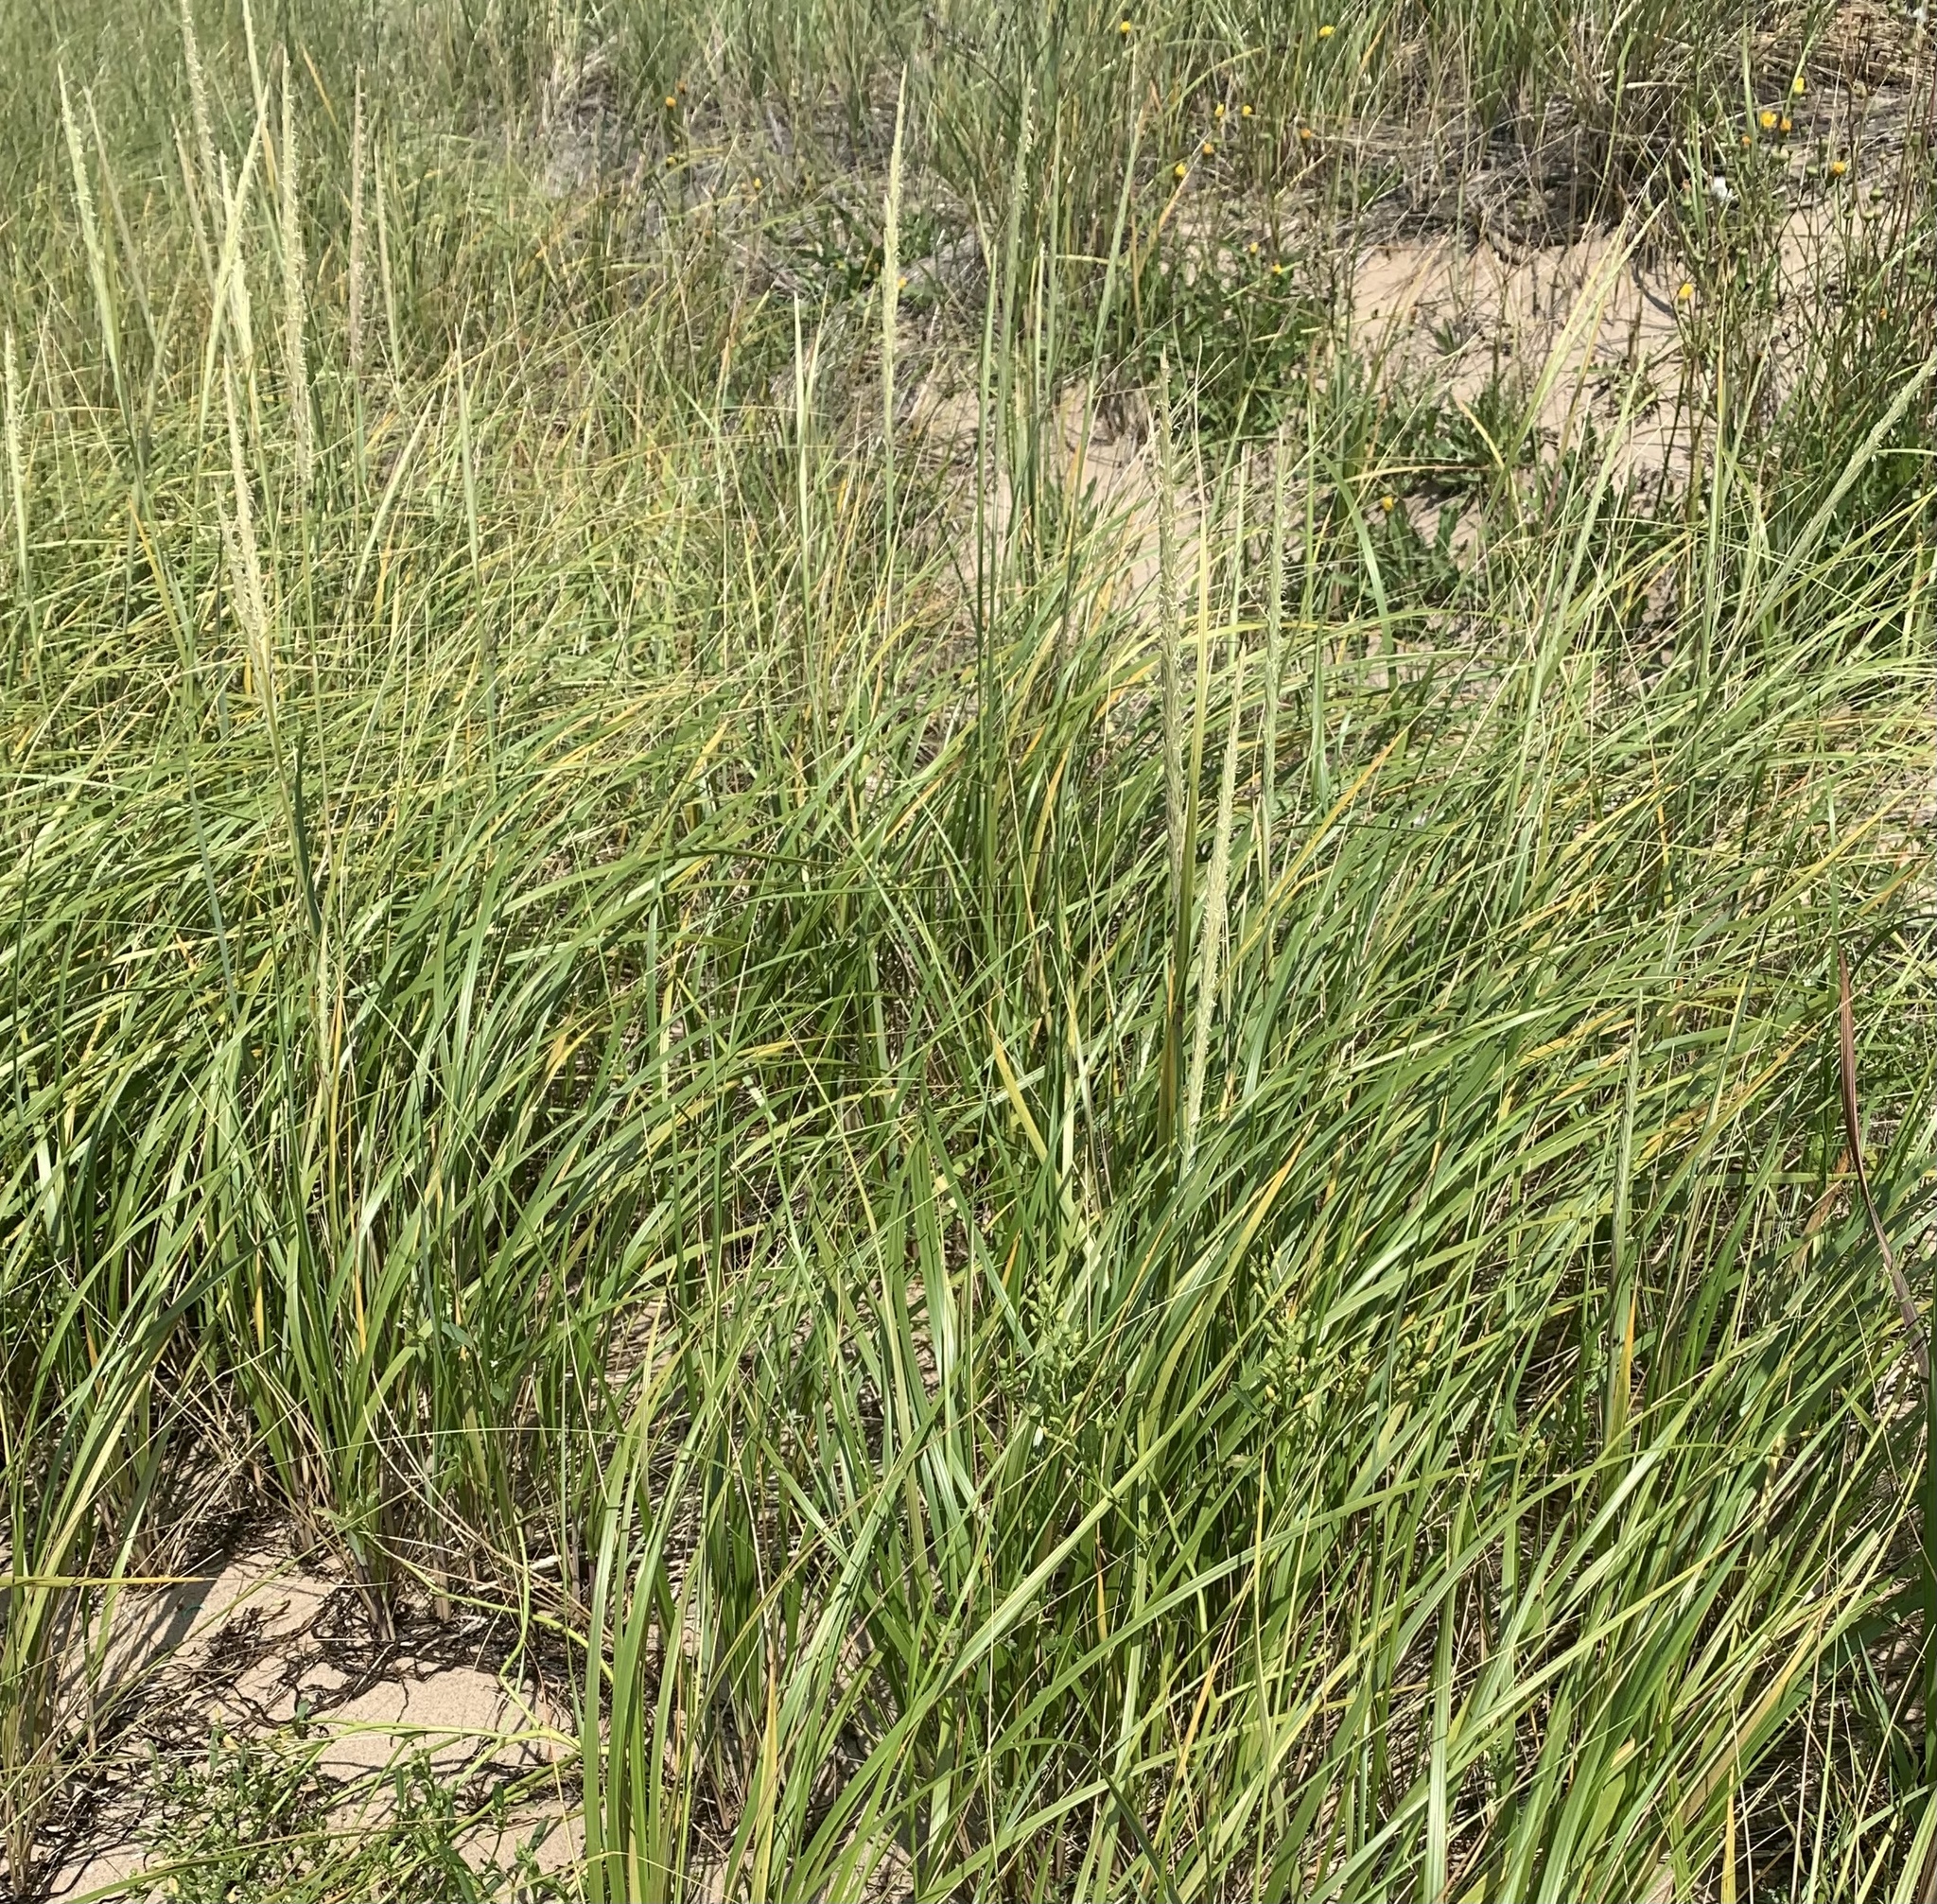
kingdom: Plantae
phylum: Tracheophyta
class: Liliopsida
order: Poales
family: Poaceae
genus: Calamagrostis
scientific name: Calamagrostis breviligulata
